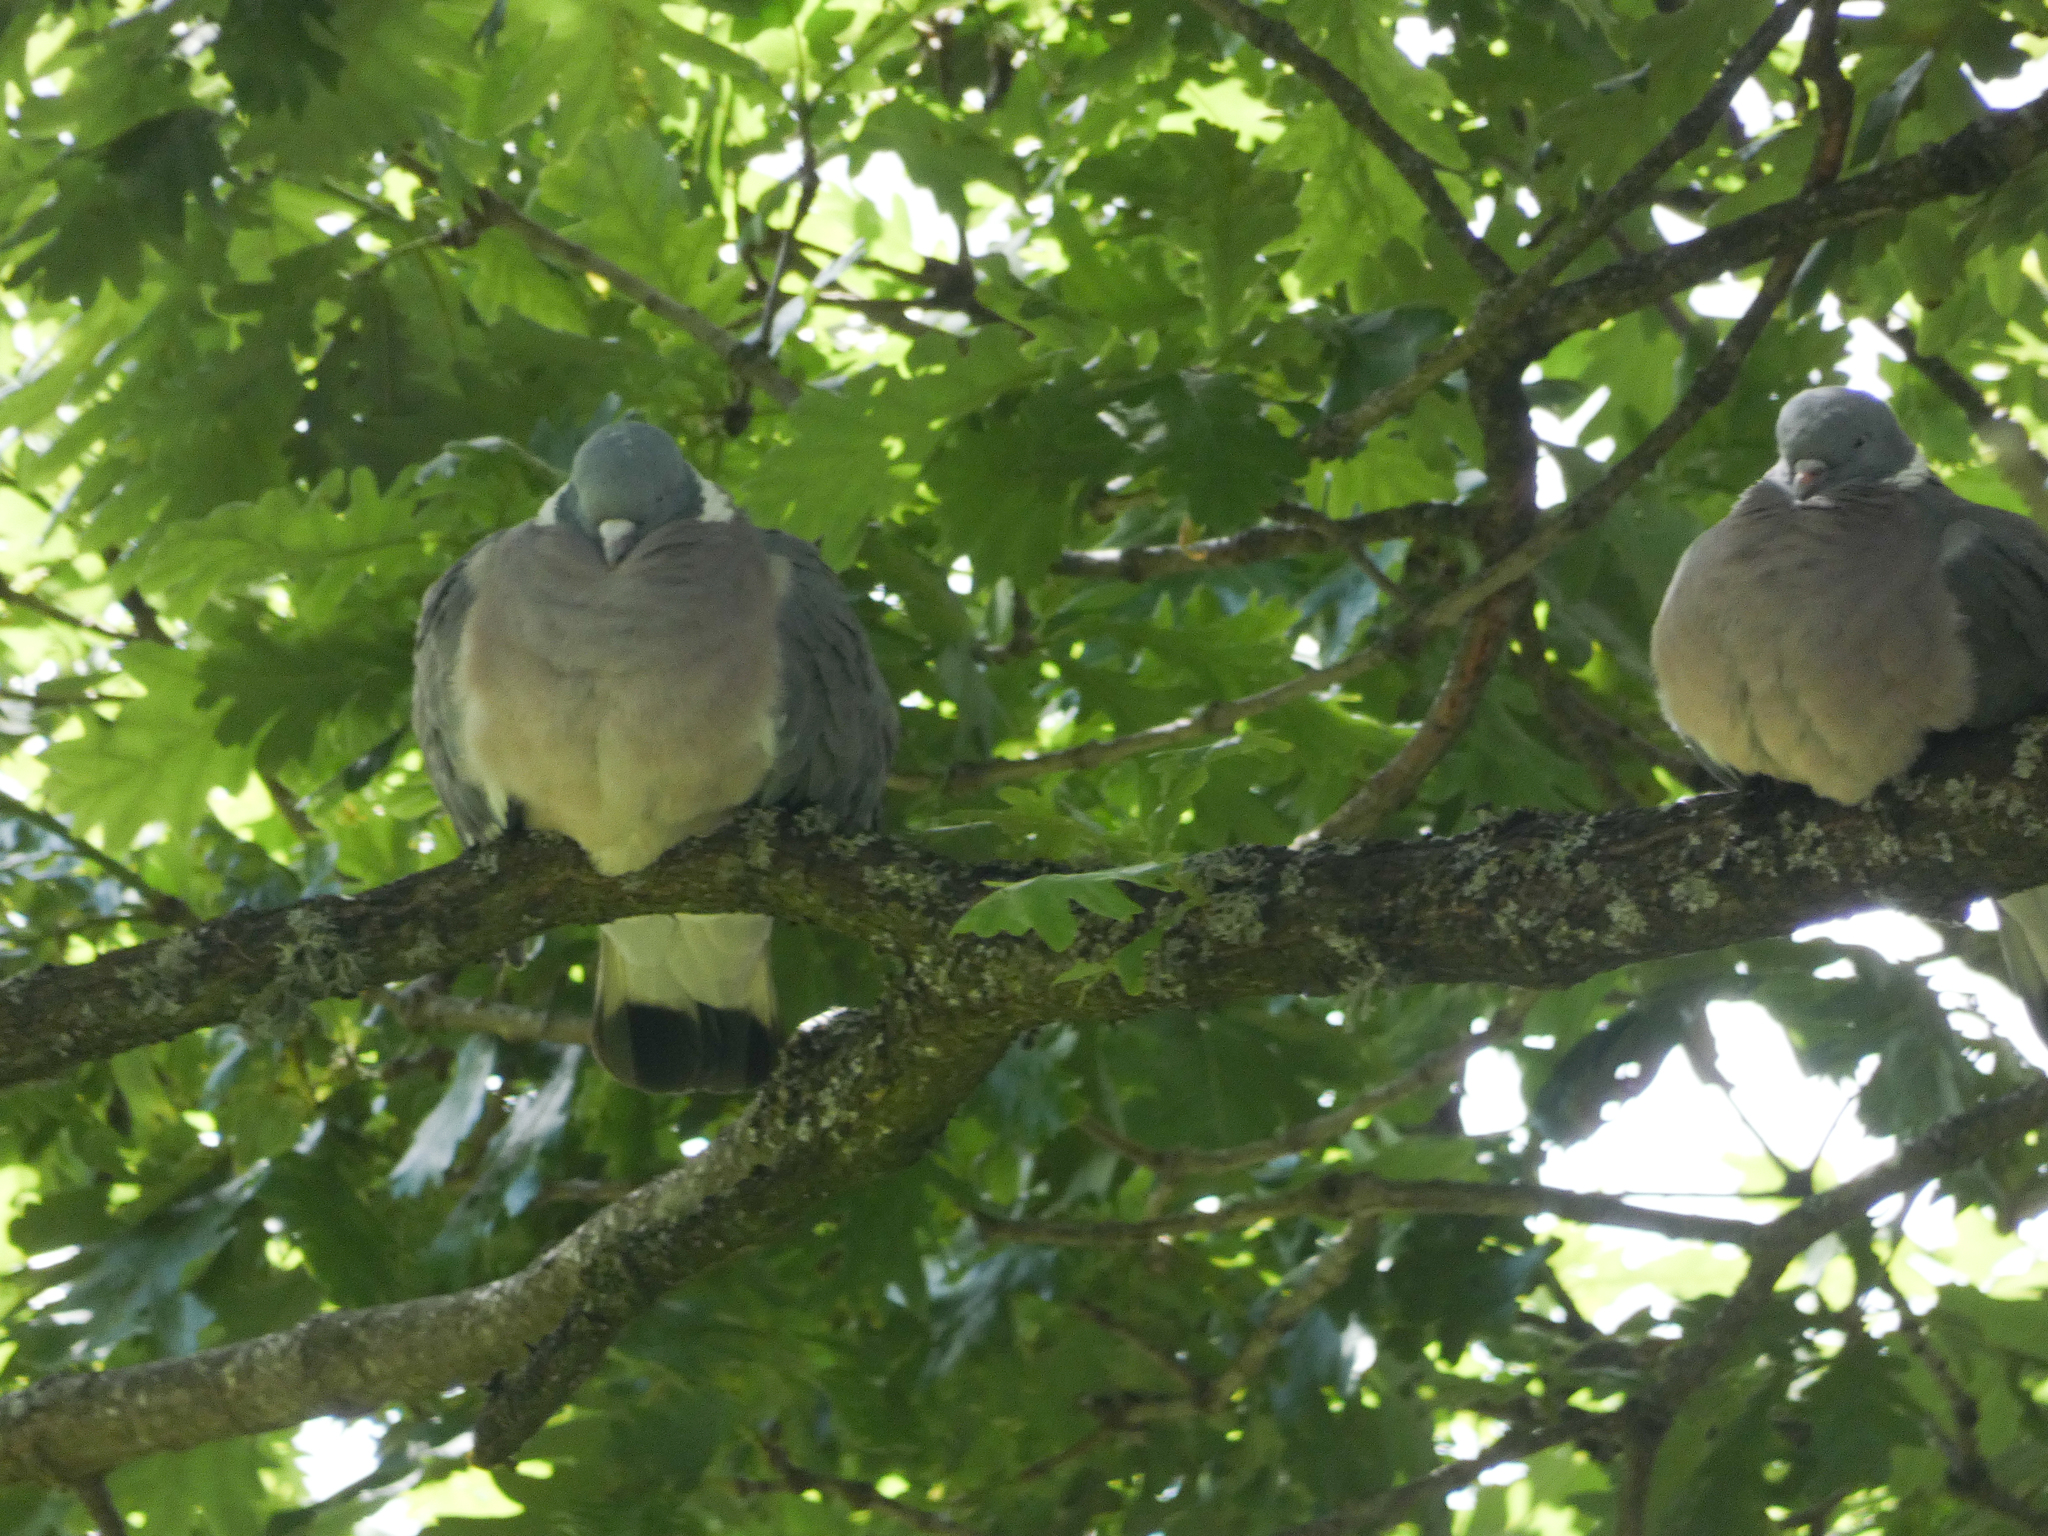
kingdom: Animalia
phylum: Chordata
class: Aves
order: Columbiformes
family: Columbidae
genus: Columba
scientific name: Columba palumbus
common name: Common wood pigeon
